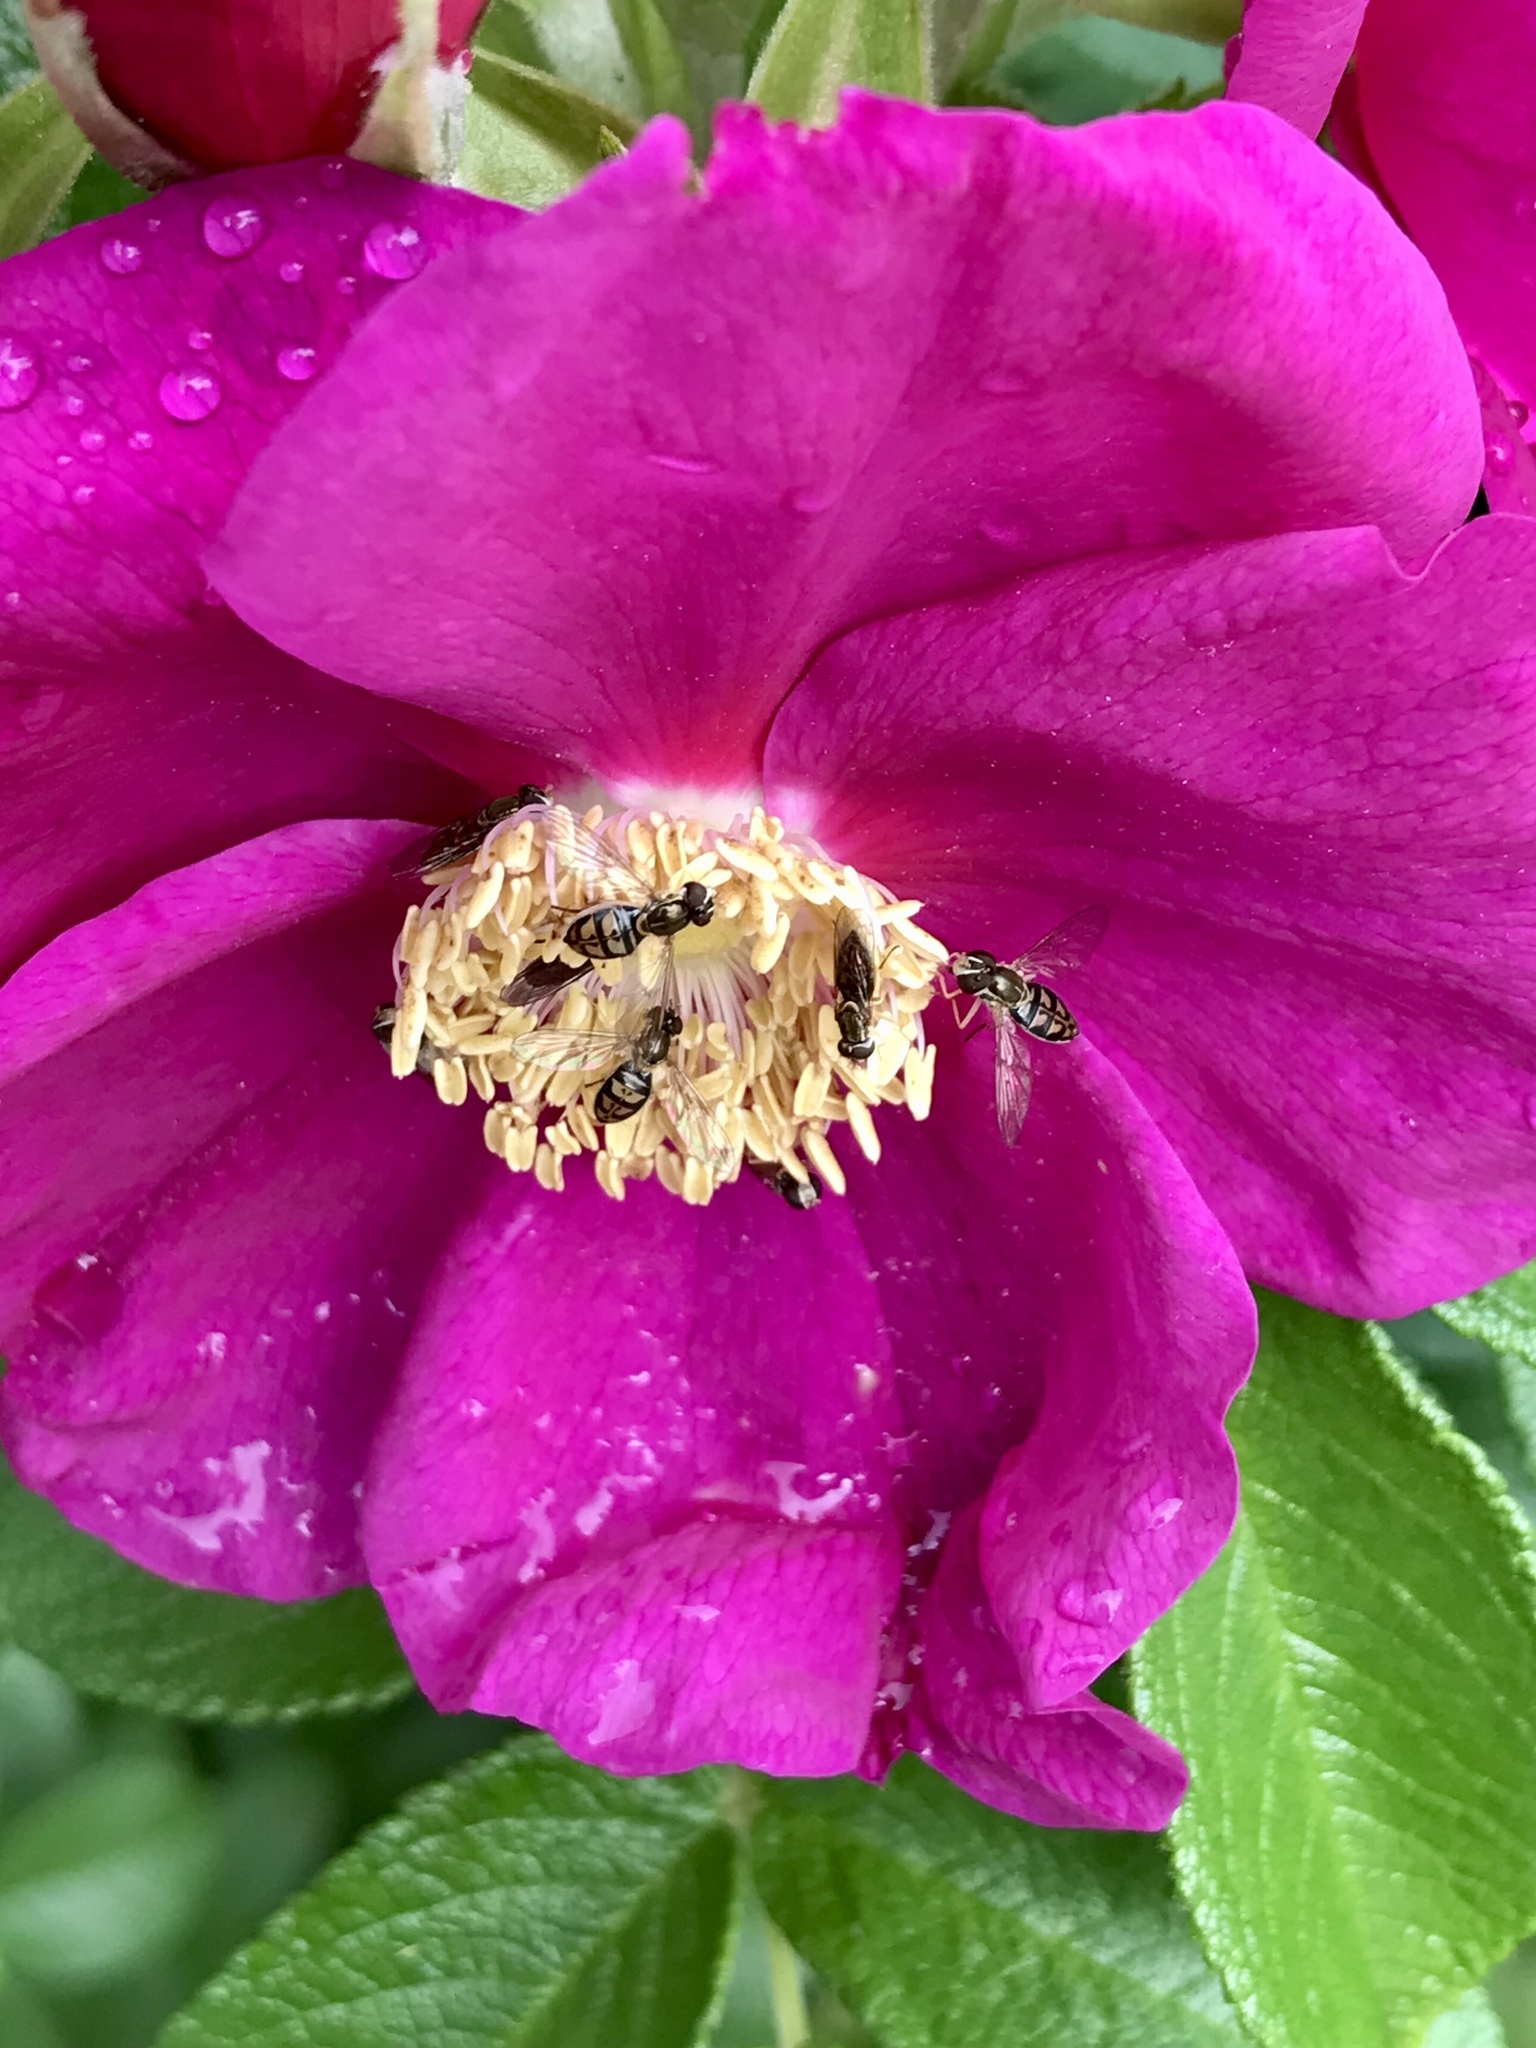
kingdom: Animalia
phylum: Arthropoda
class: Insecta
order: Diptera
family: Syrphidae
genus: Toxomerus
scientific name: Toxomerus marginatus
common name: Syrphid fly
